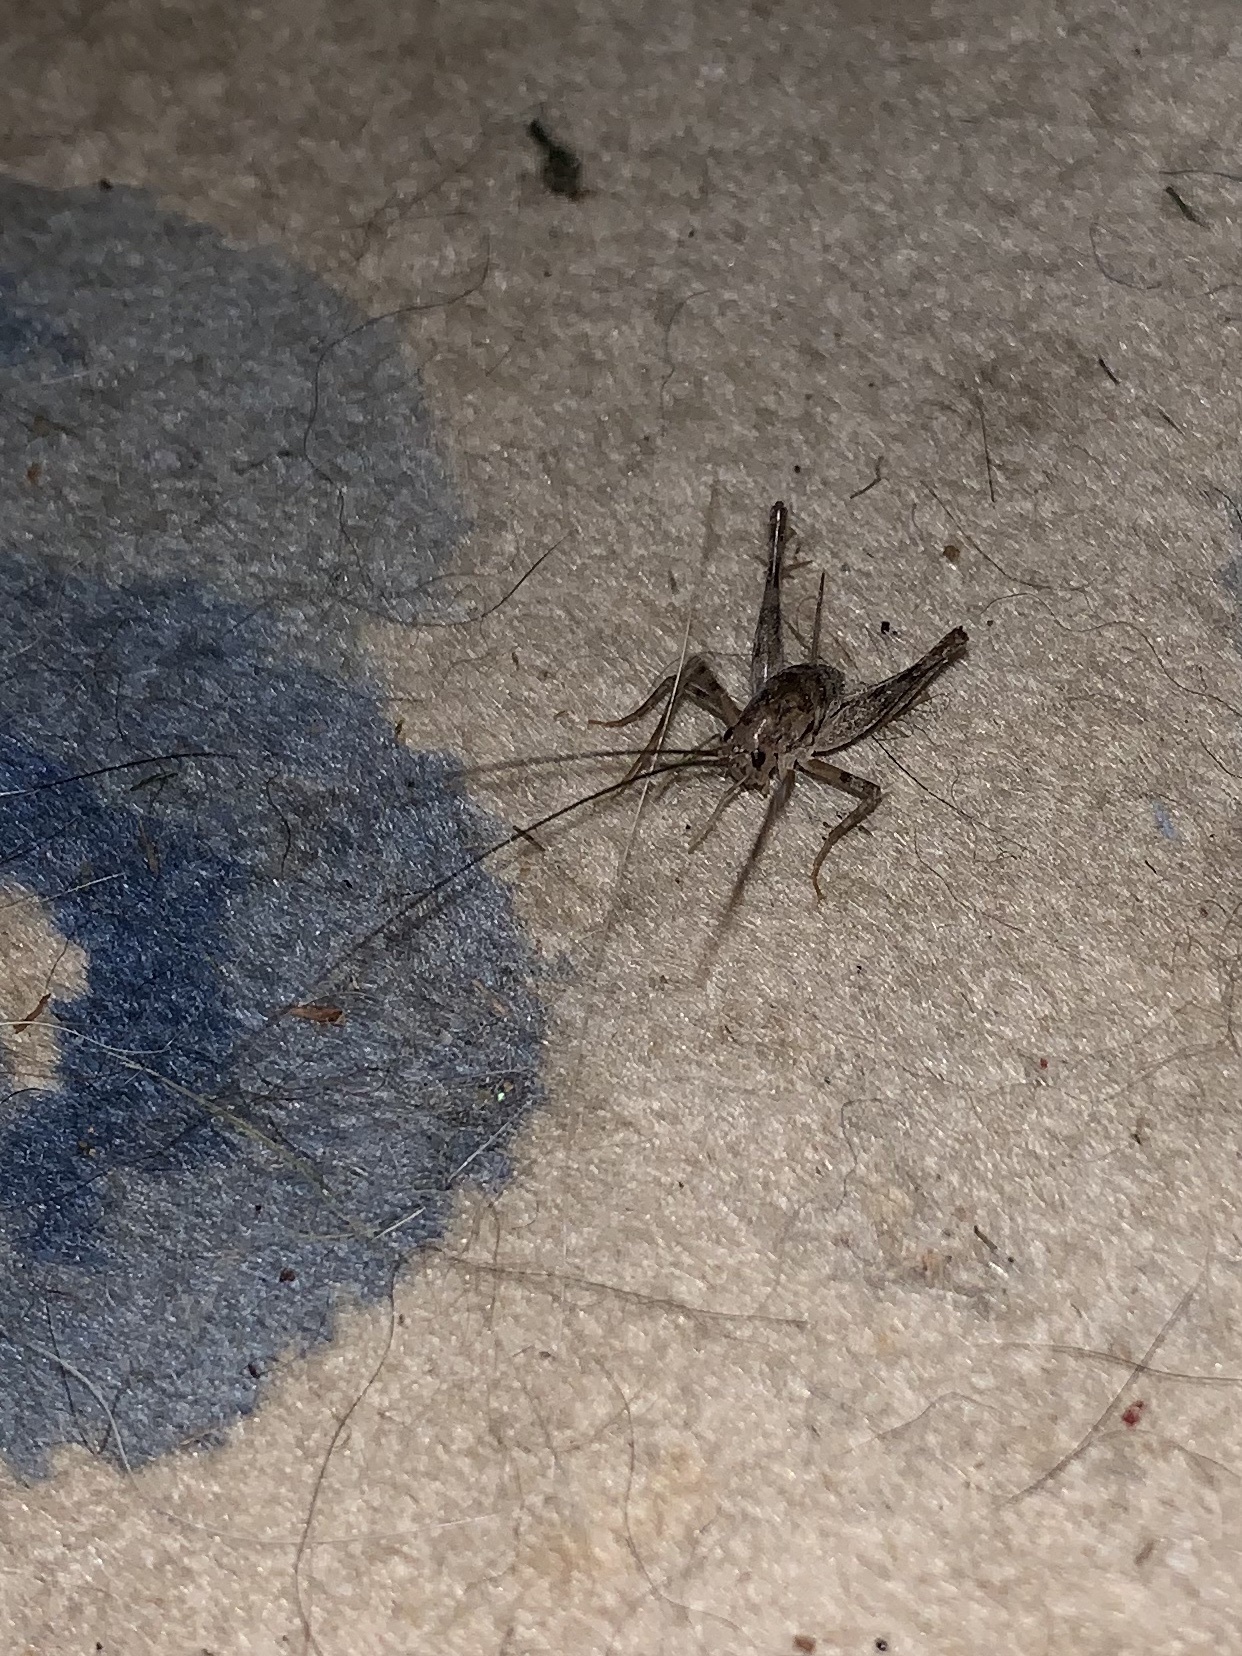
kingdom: Animalia
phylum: Arthropoda
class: Insecta
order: Orthoptera
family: Rhaphidophoridae
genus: Tachycines
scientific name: Tachycines asynamorus
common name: Greenhouse camel cricket
